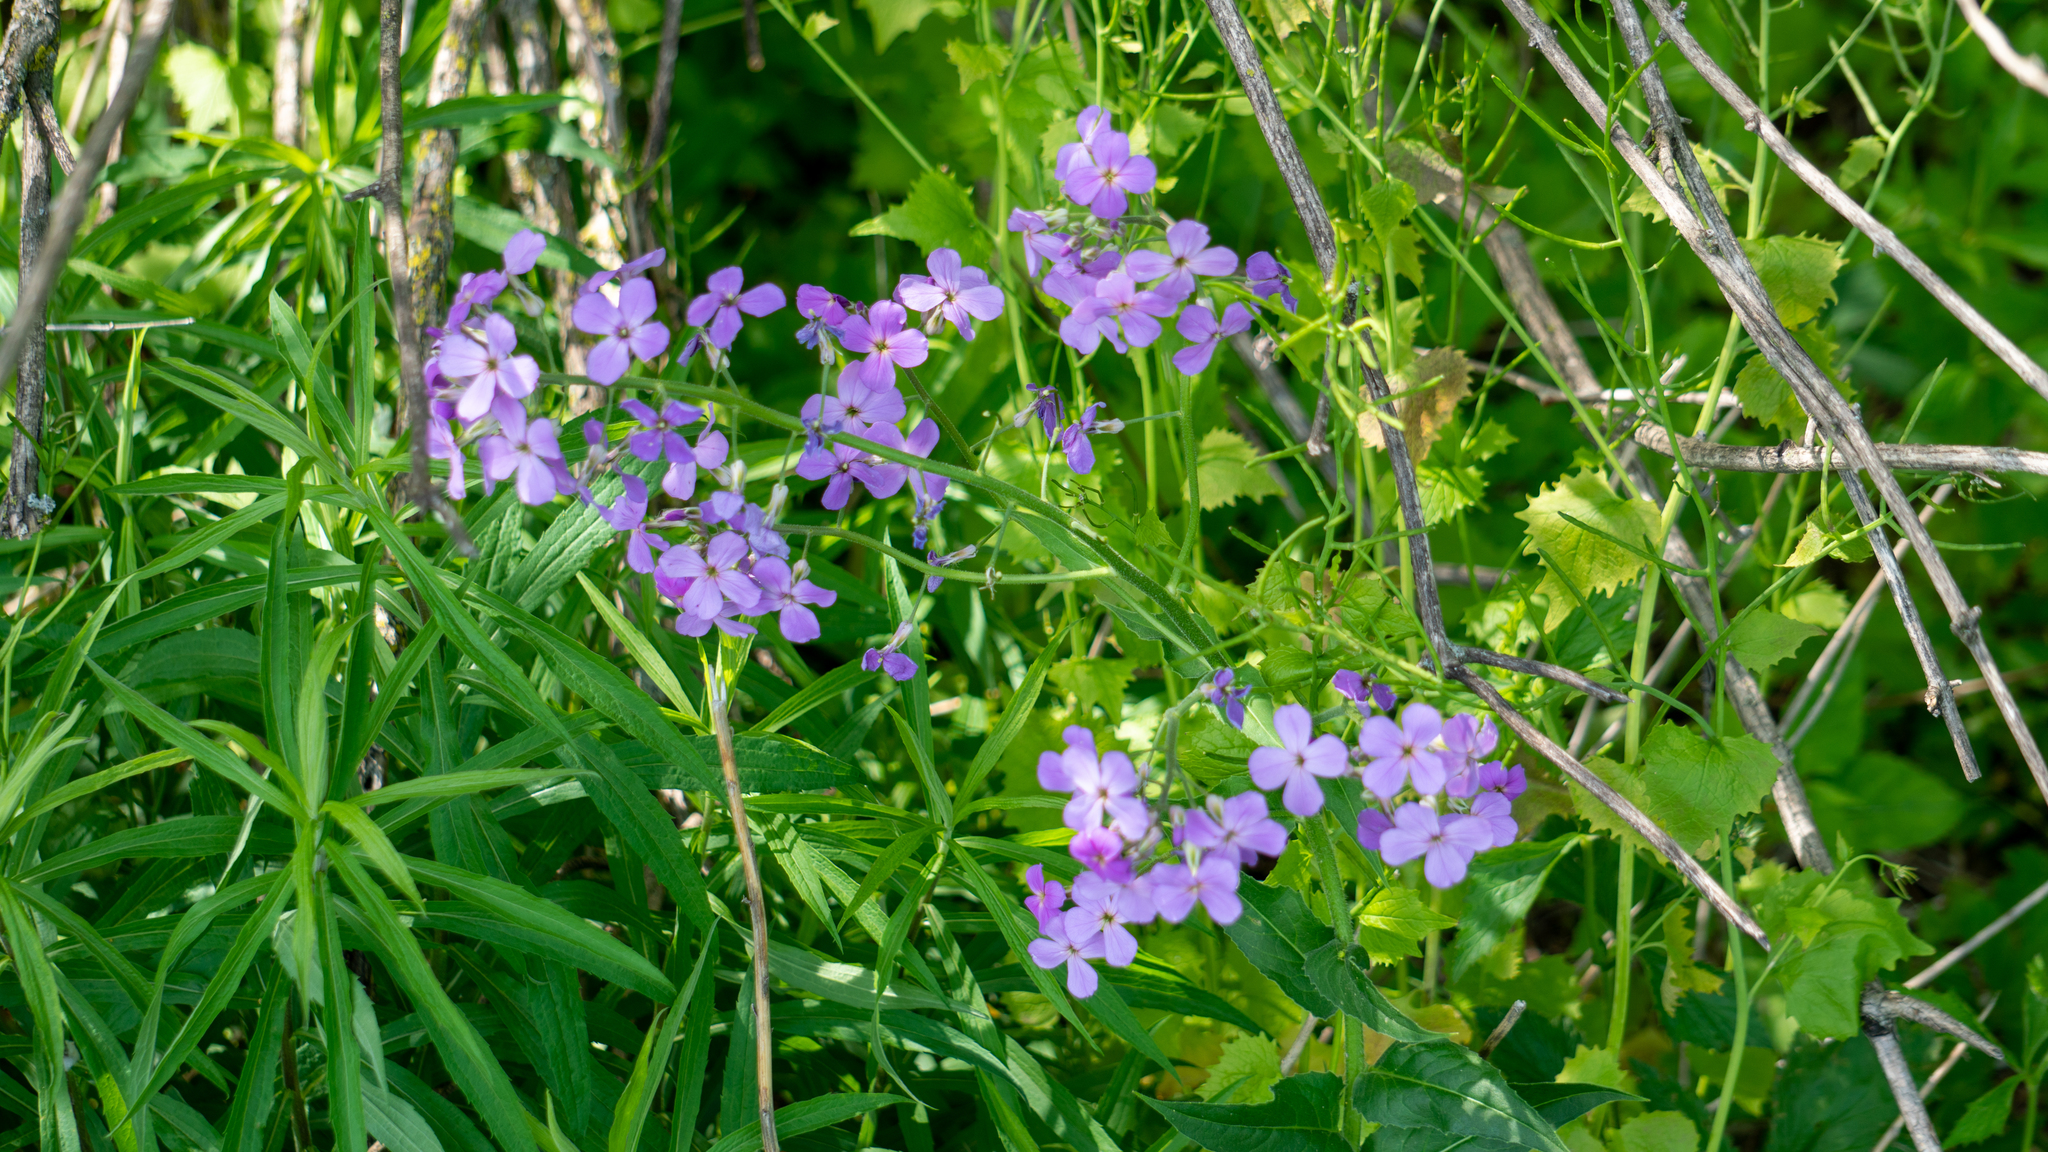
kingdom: Plantae
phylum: Tracheophyta
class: Magnoliopsida
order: Brassicales
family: Brassicaceae
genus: Hesperis
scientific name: Hesperis matronalis
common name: Dame's-violet
